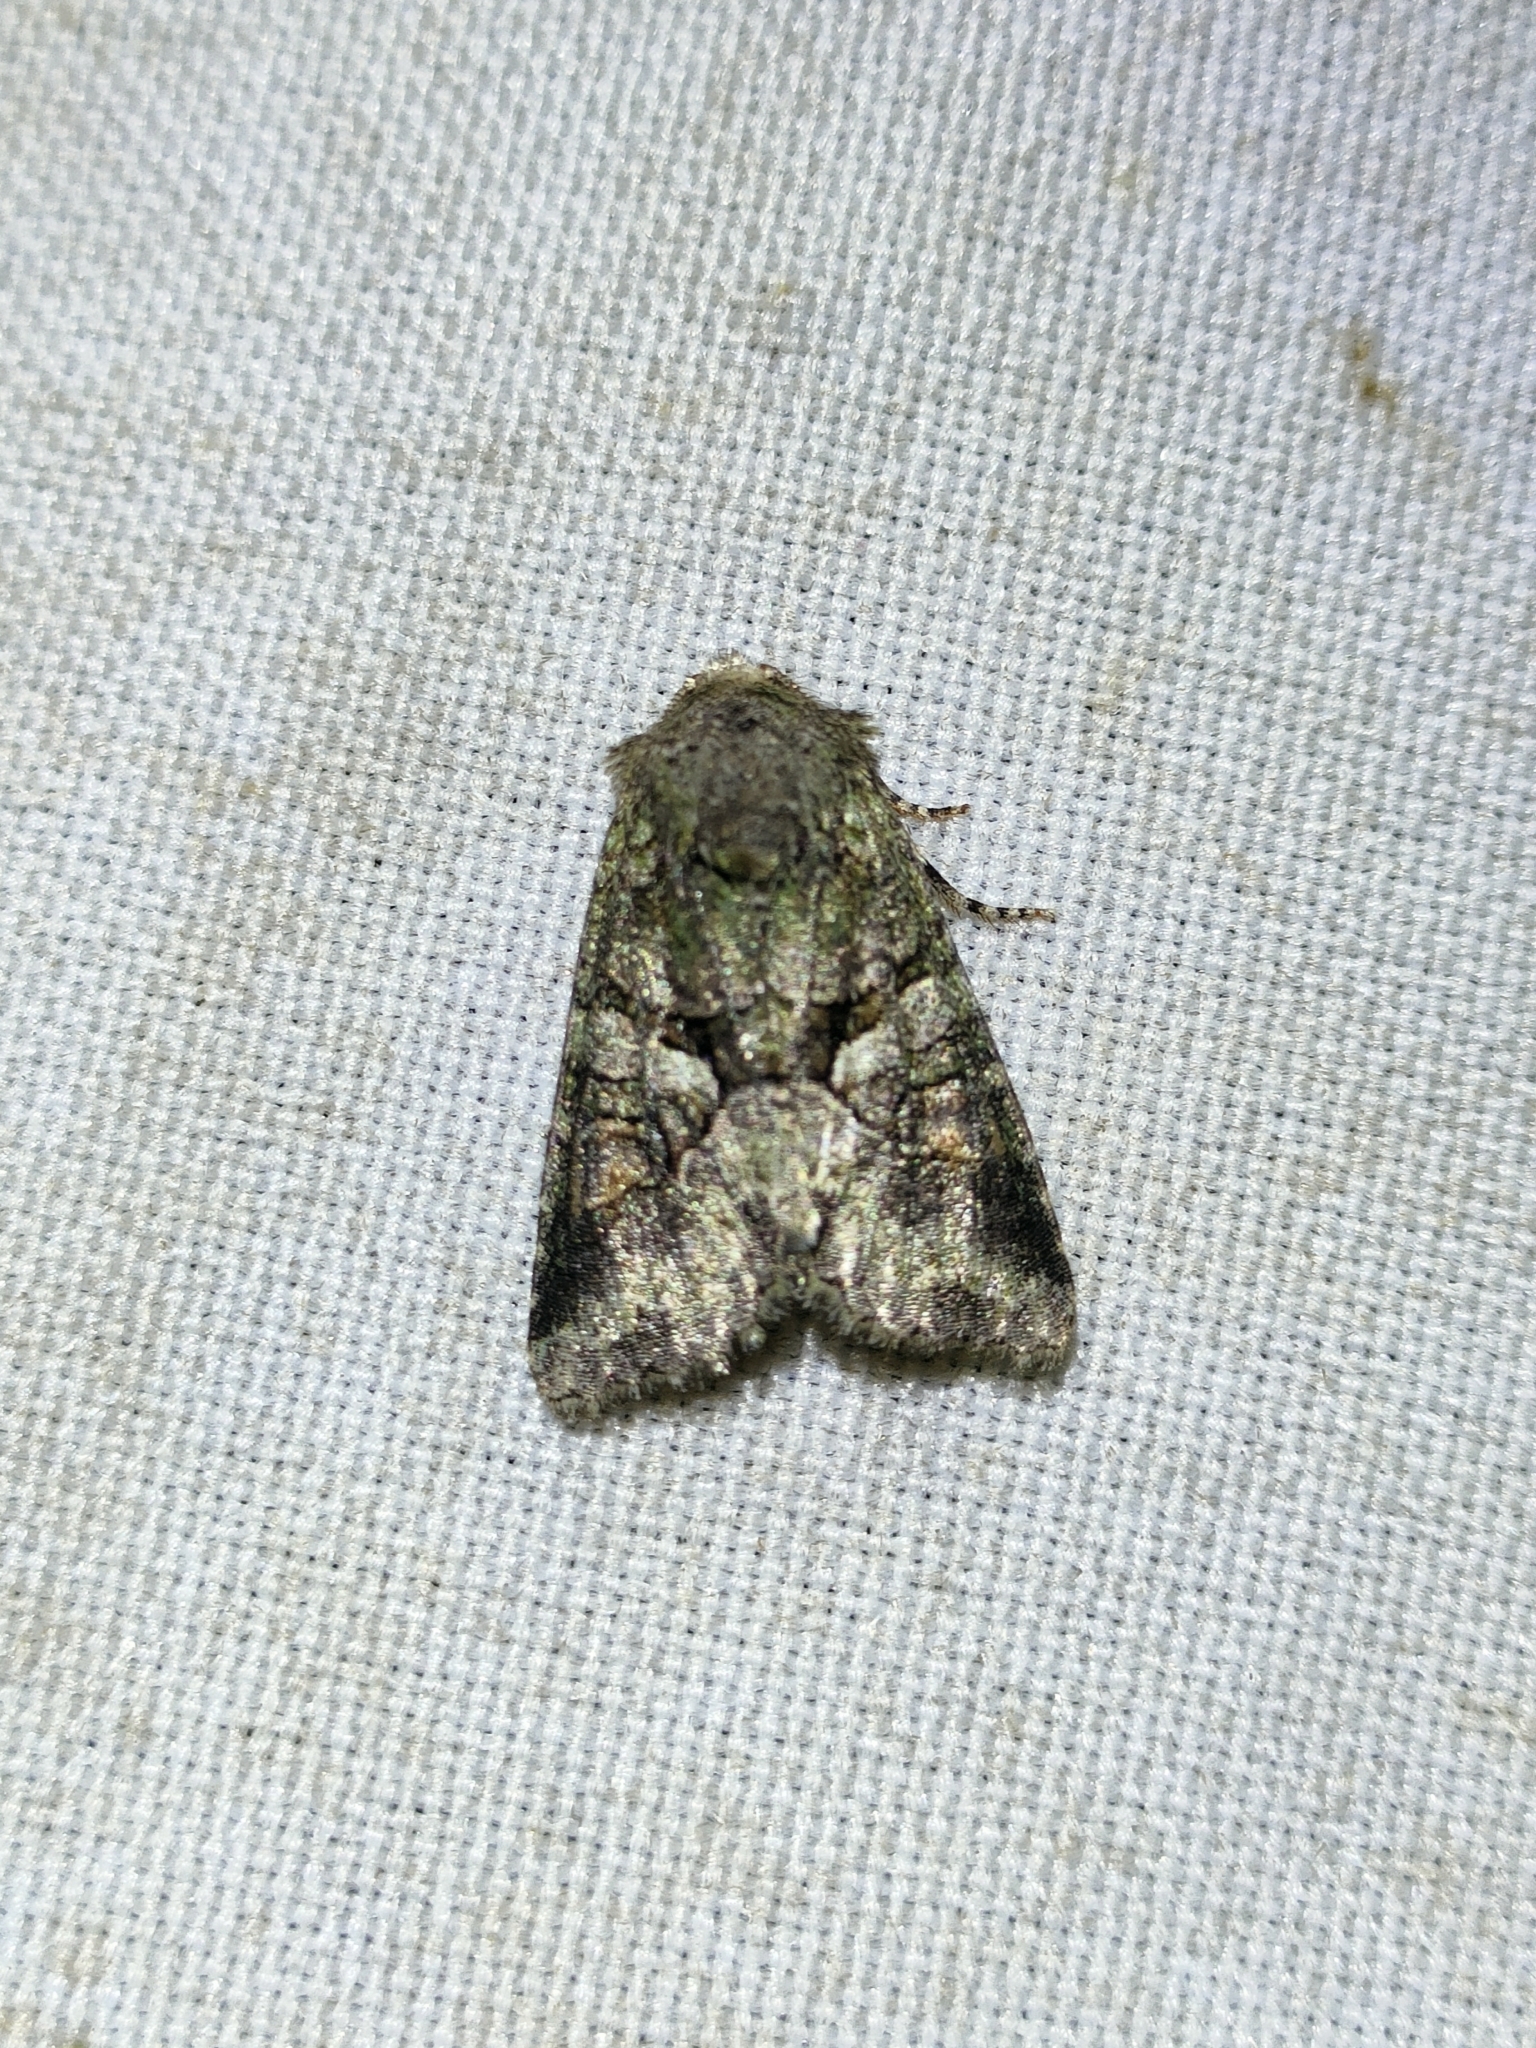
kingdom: Animalia
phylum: Arthropoda
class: Insecta
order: Lepidoptera
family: Noctuidae
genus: Dryobotodes
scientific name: Dryobotodes roboris
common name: Southern brindled green
